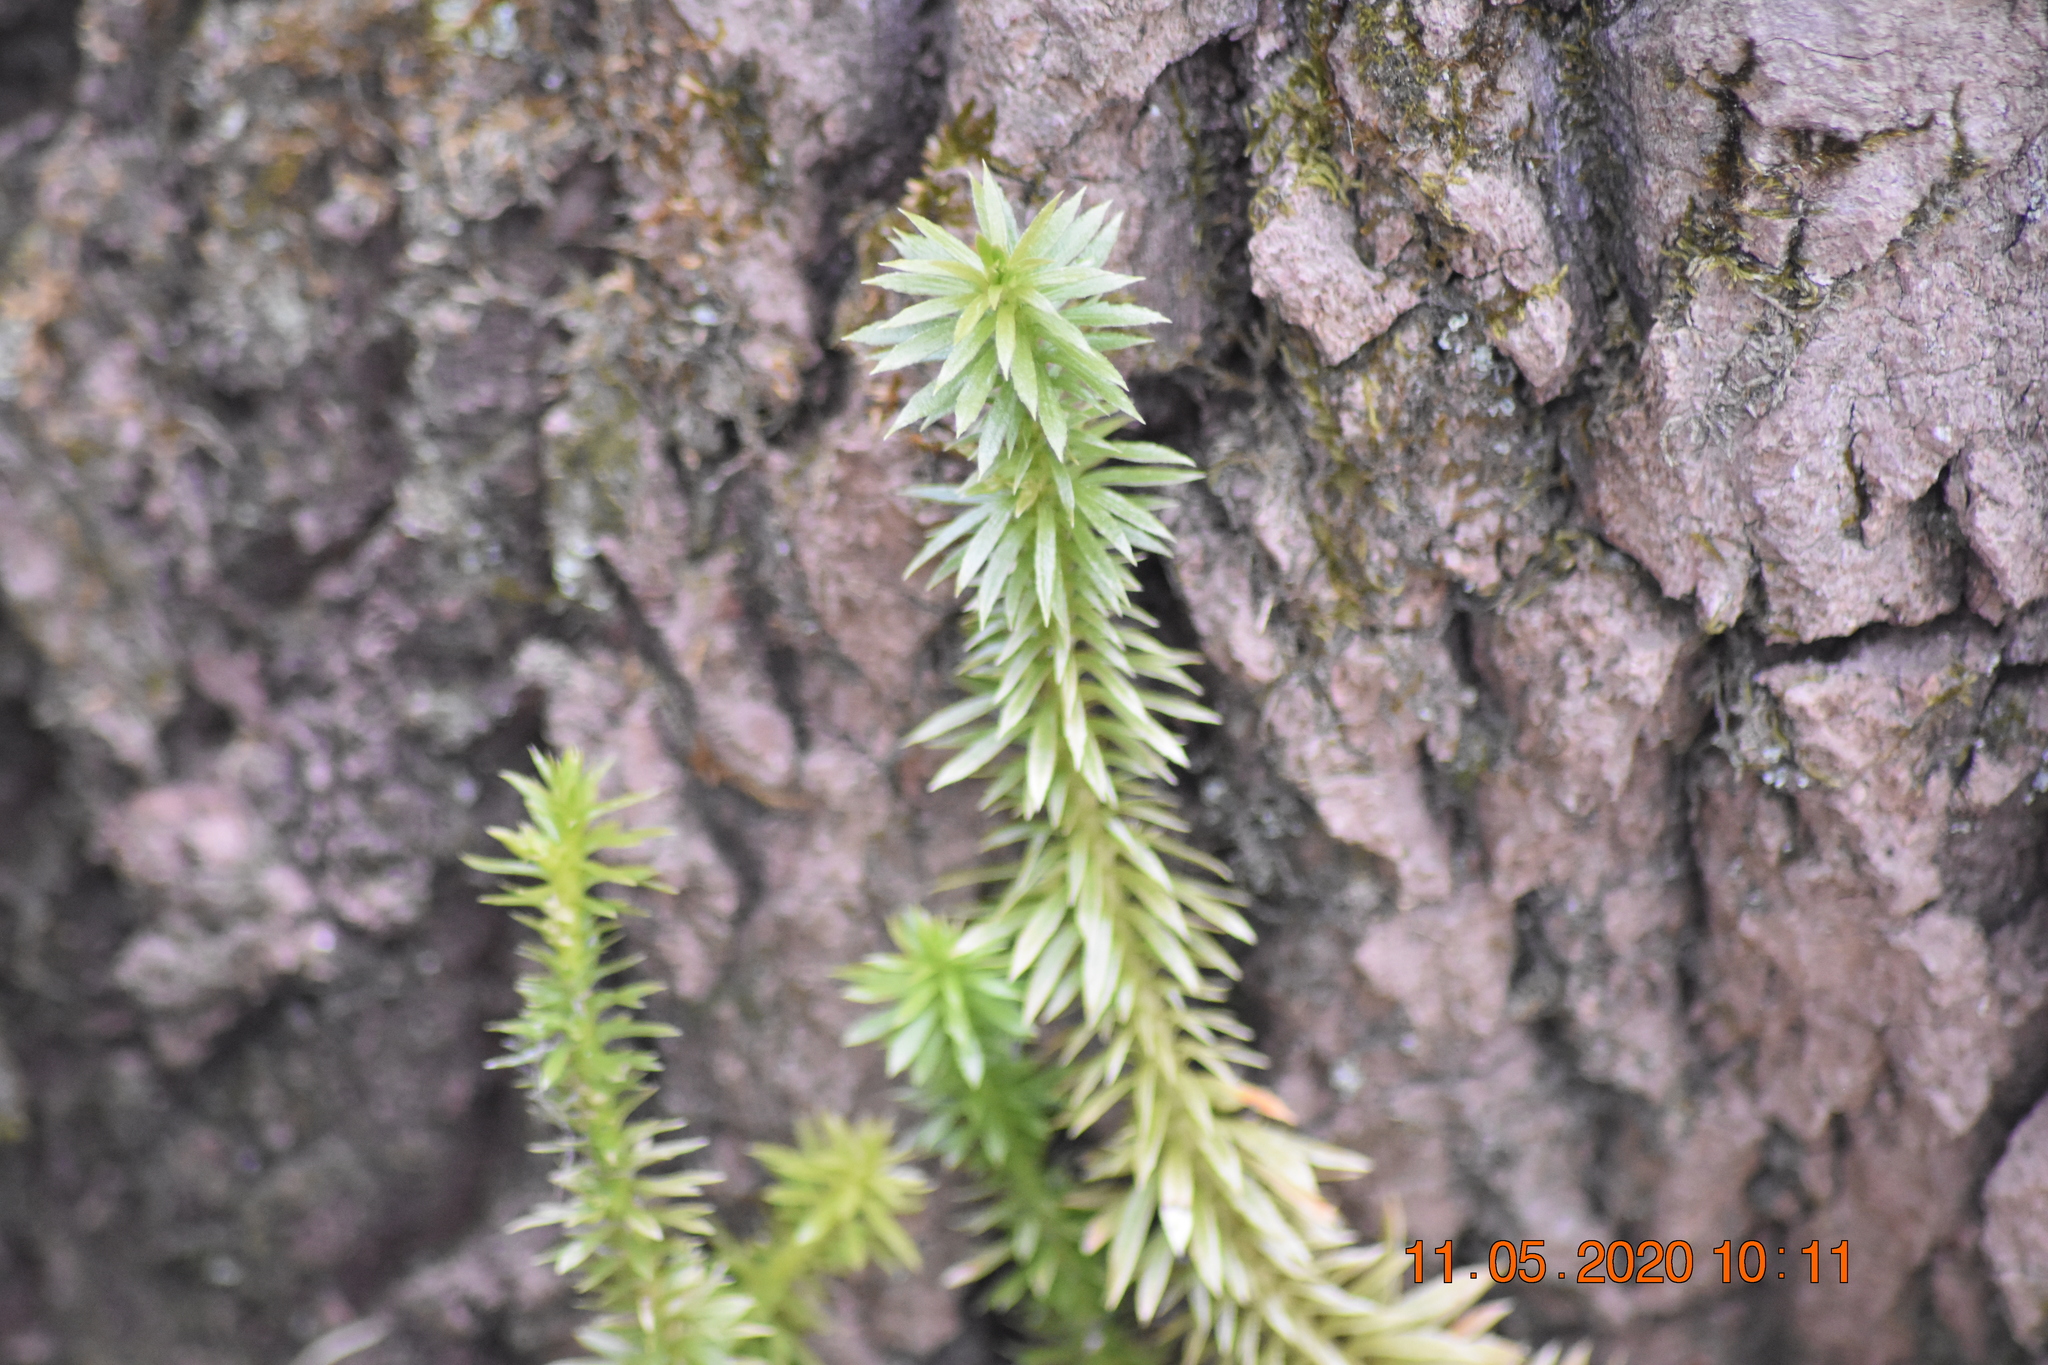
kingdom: Plantae
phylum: Tracheophyta
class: Lycopodiopsida
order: Lycopodiales
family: Lycopodiaceae
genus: Huperzia
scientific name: Huperzia lucidula
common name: Shining clubmoss
